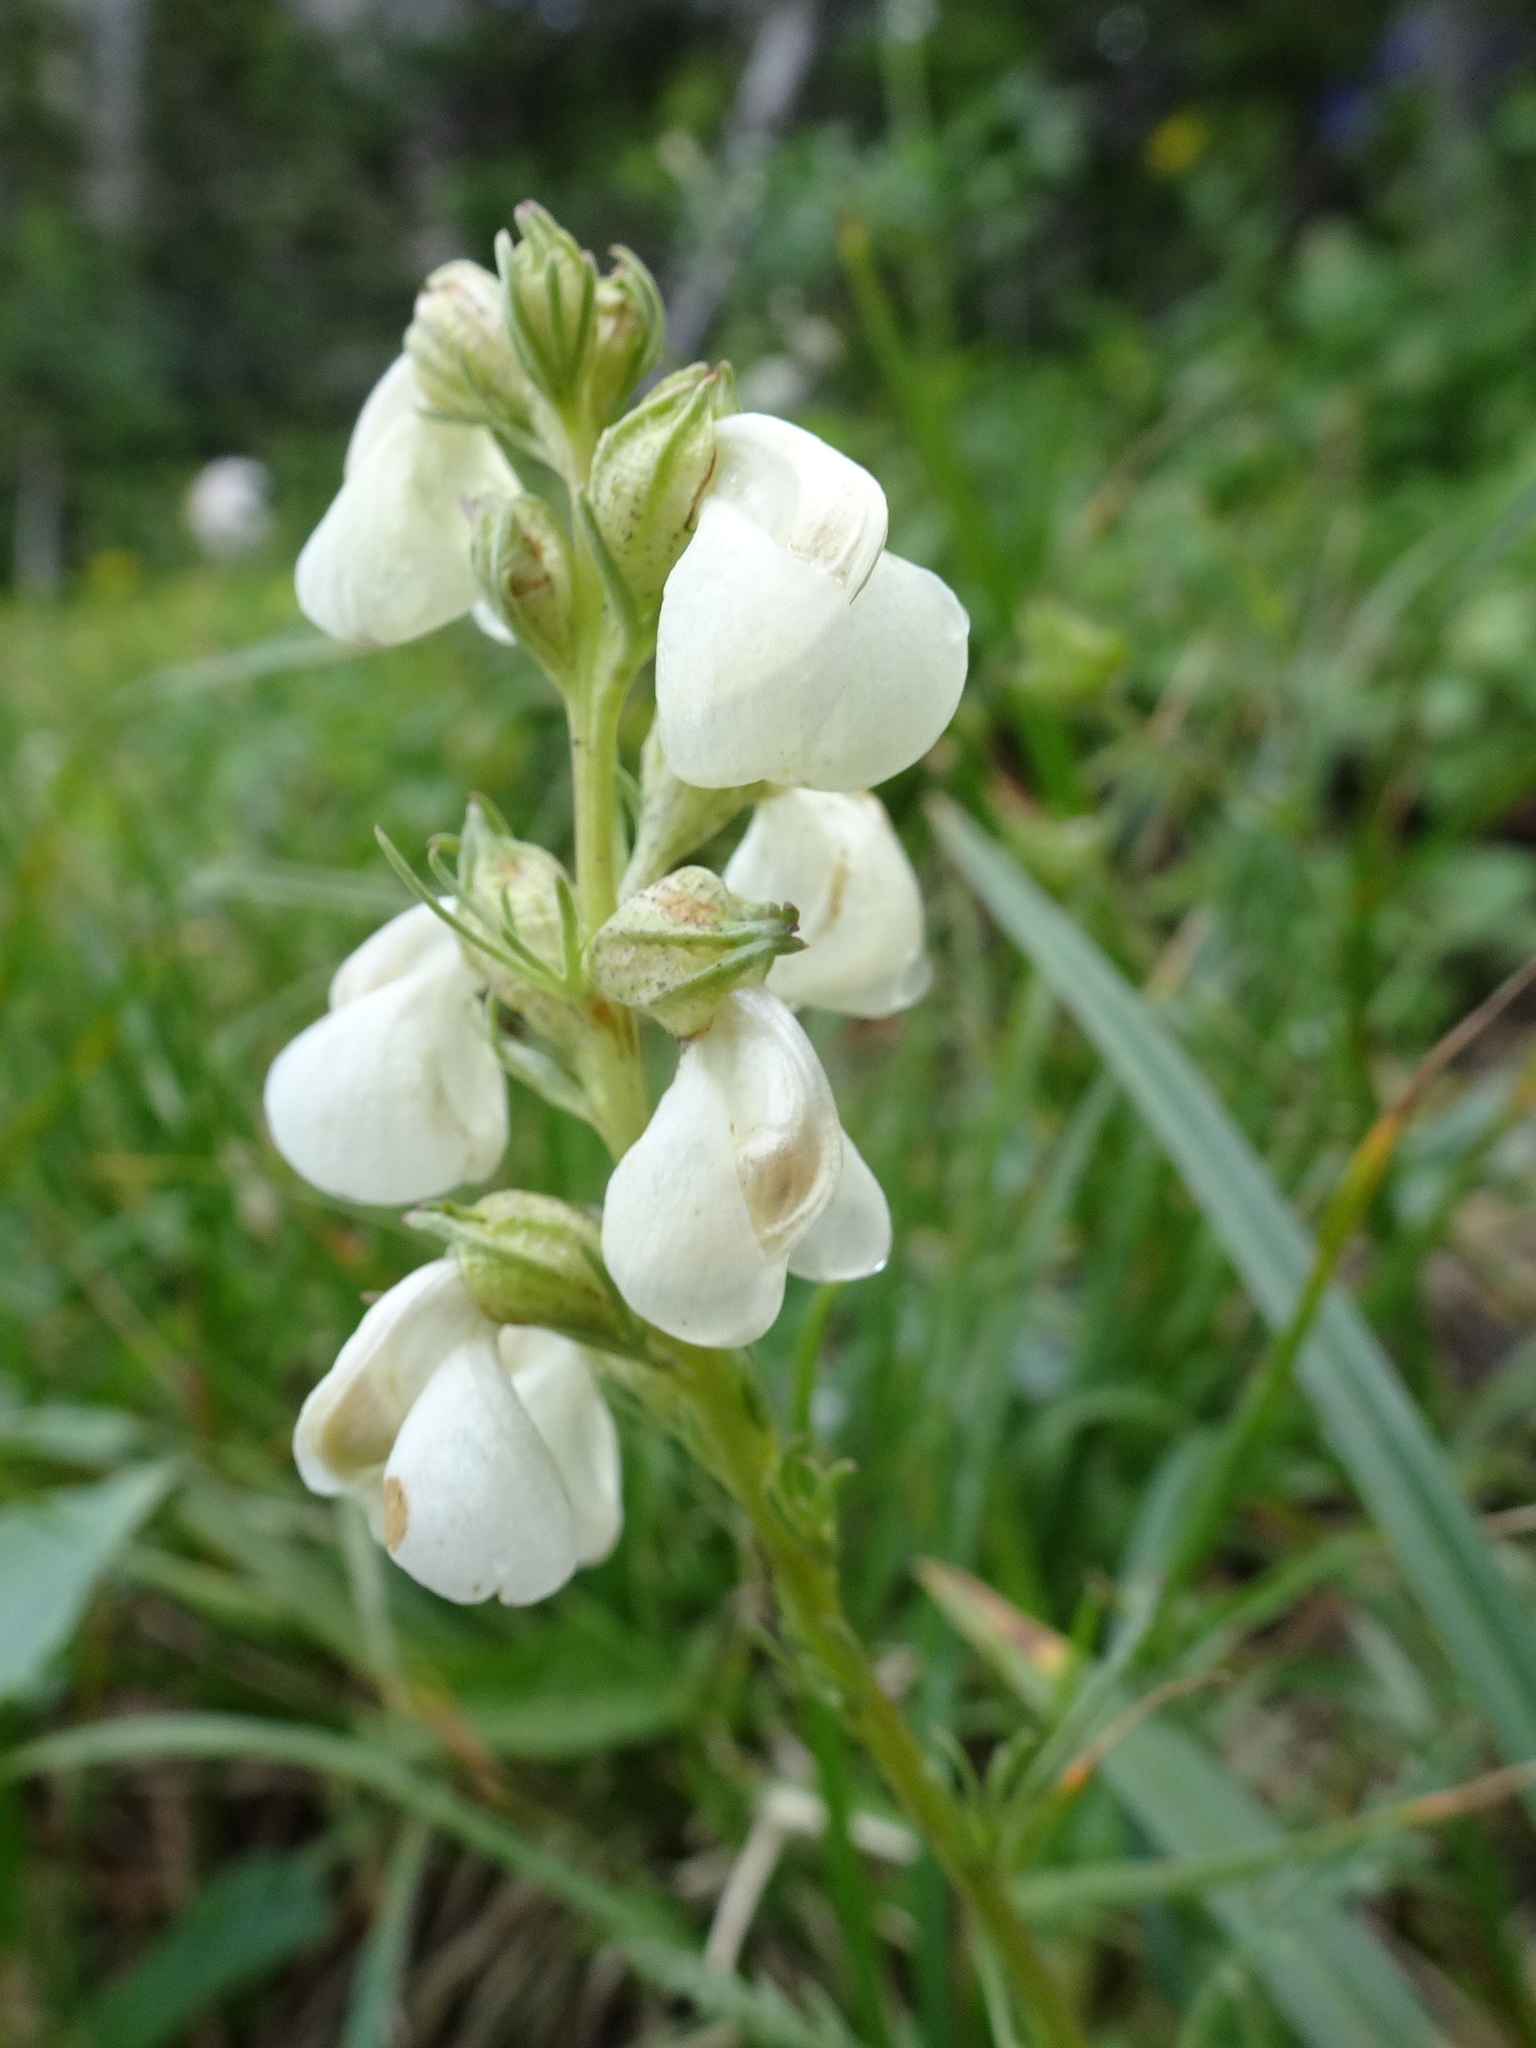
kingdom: Plantae
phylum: Tracheophyta
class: Magnoliopsida
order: Lamiales
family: Orobanchaceae
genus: Pedicularis
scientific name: Pedicularis contorta
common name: Coiled lousewort
